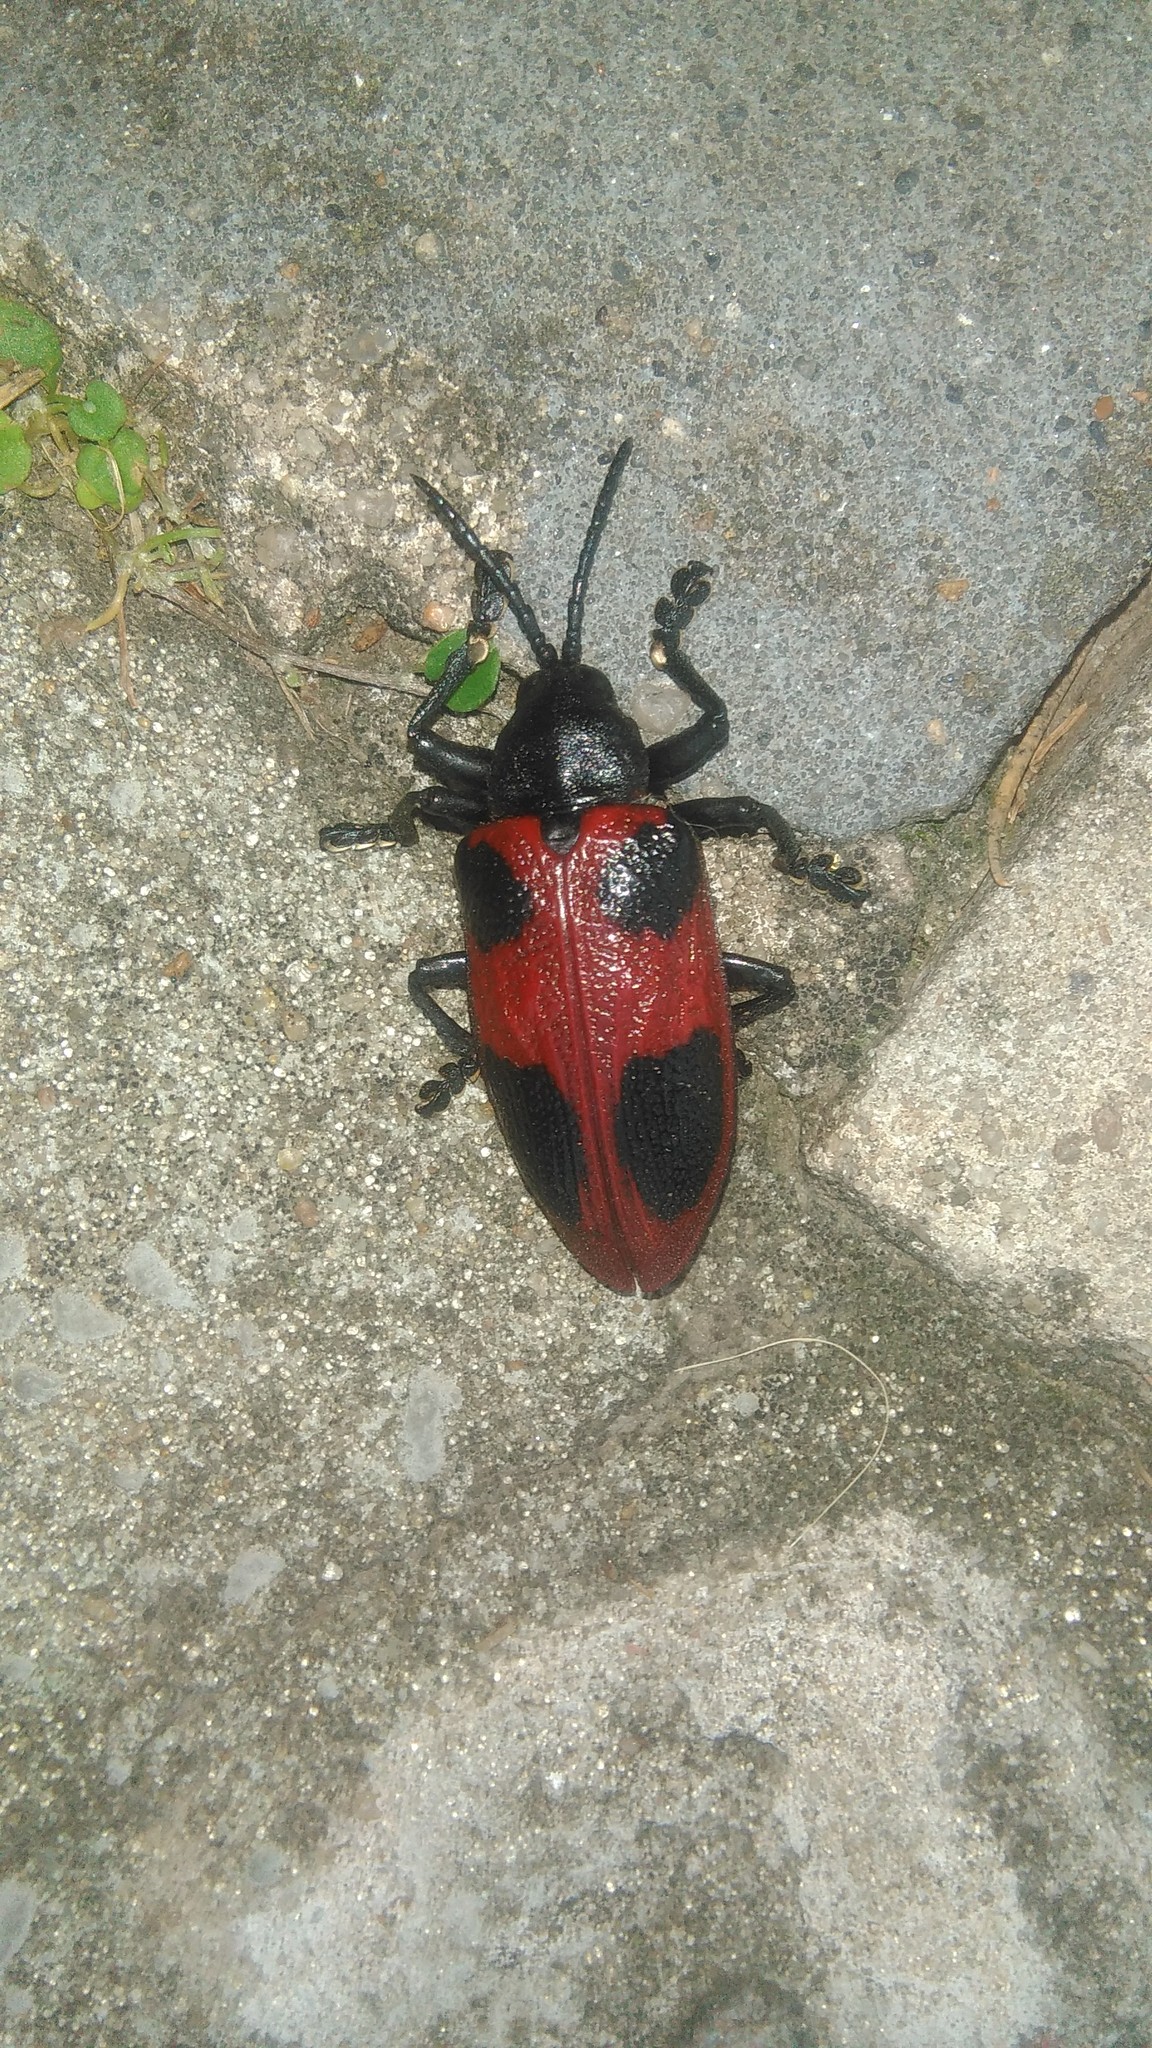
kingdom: Animalia
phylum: Arthropoda
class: Insecta
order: Coleoptera
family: Chrysomelidae
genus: Coraliomela
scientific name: Coraliomela quadrimaculata
